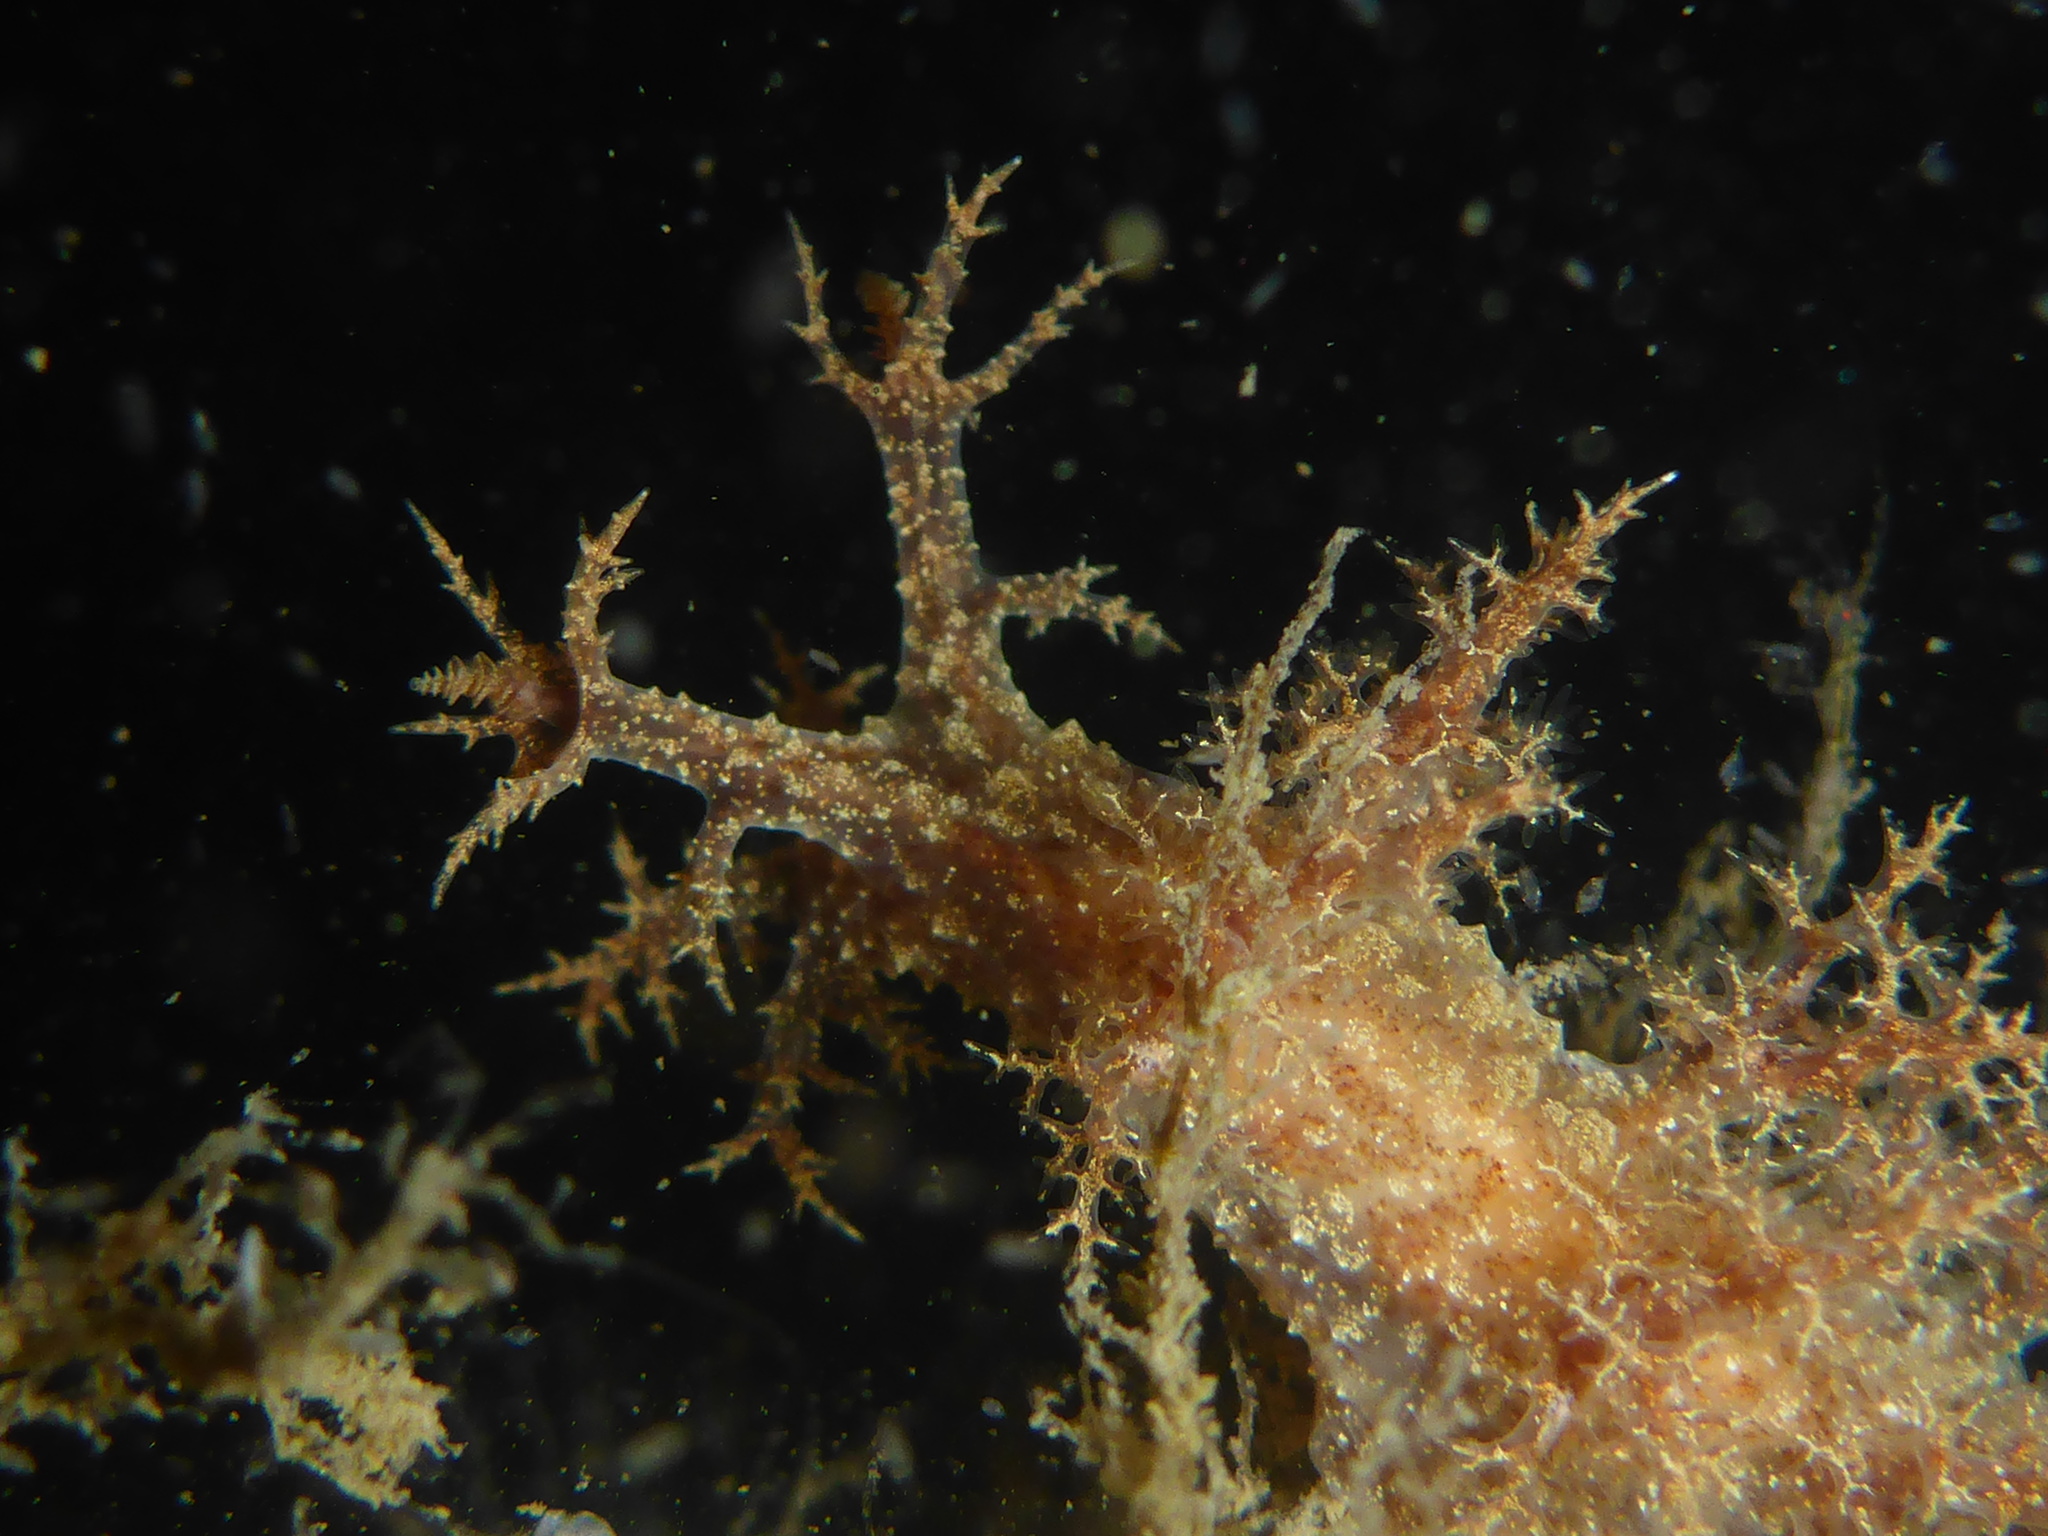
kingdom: Animalia
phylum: Mollusca
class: Gastropoda
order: Nudibranchia
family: Dendronotidae
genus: Dendronotus
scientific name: Dendronotus venustus
